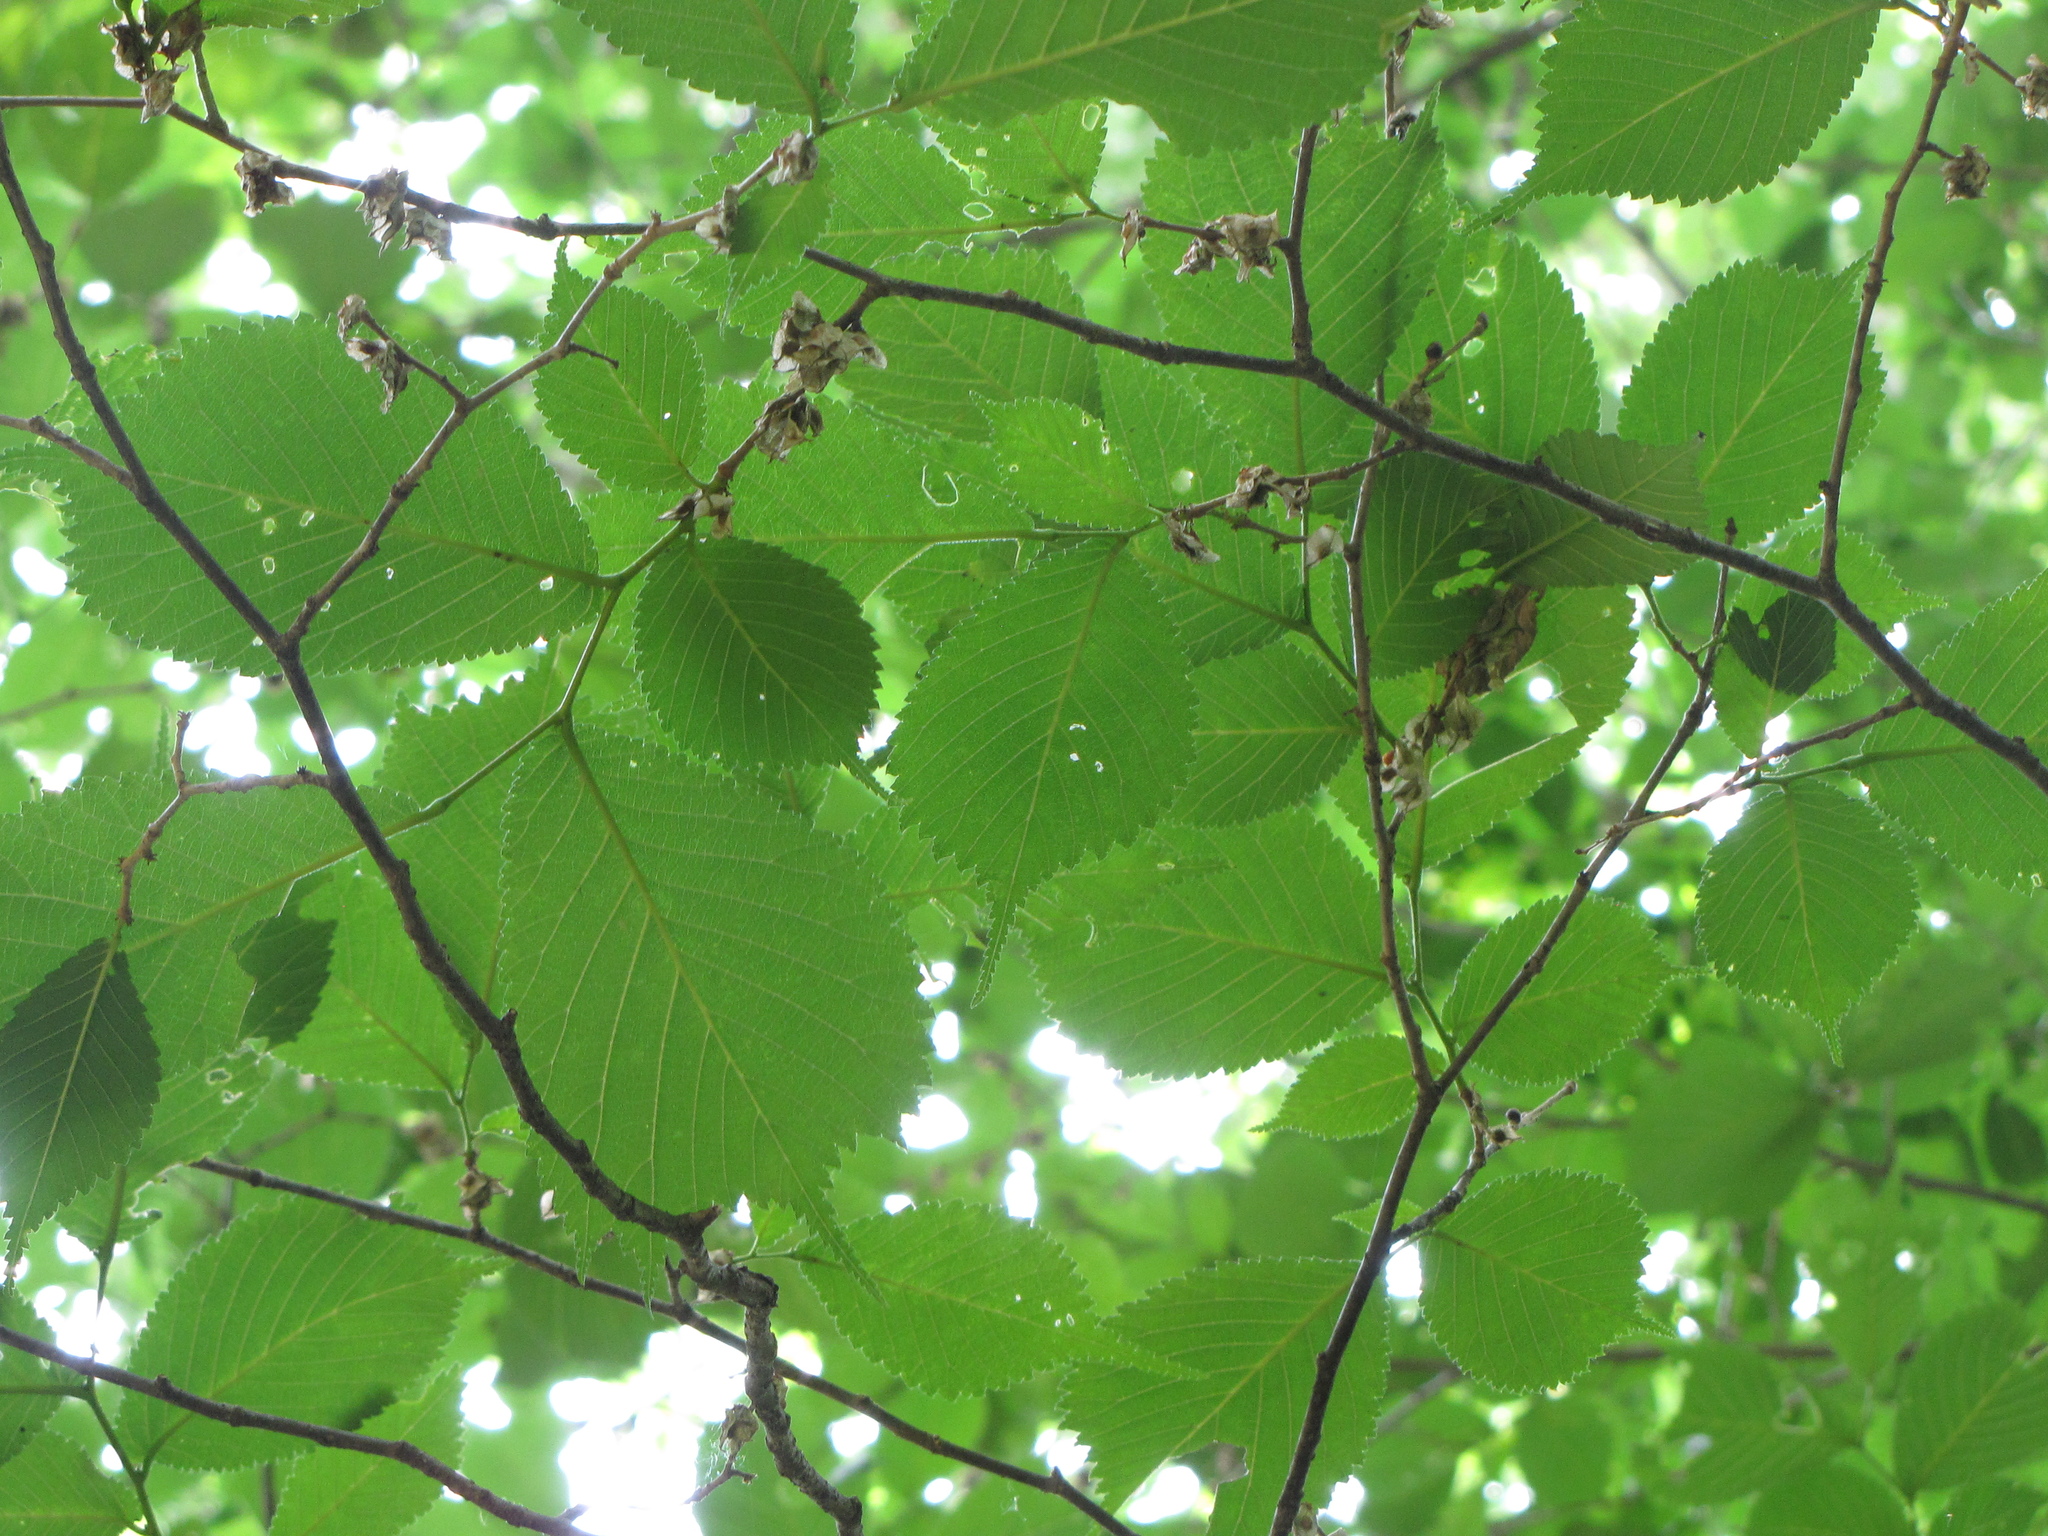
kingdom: Plantae
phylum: Tracheophyta
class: Magnoliopsida
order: Rosales
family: Ulmaceae
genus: Ulmus
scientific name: Ulmus laciniata
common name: Japanese elm
